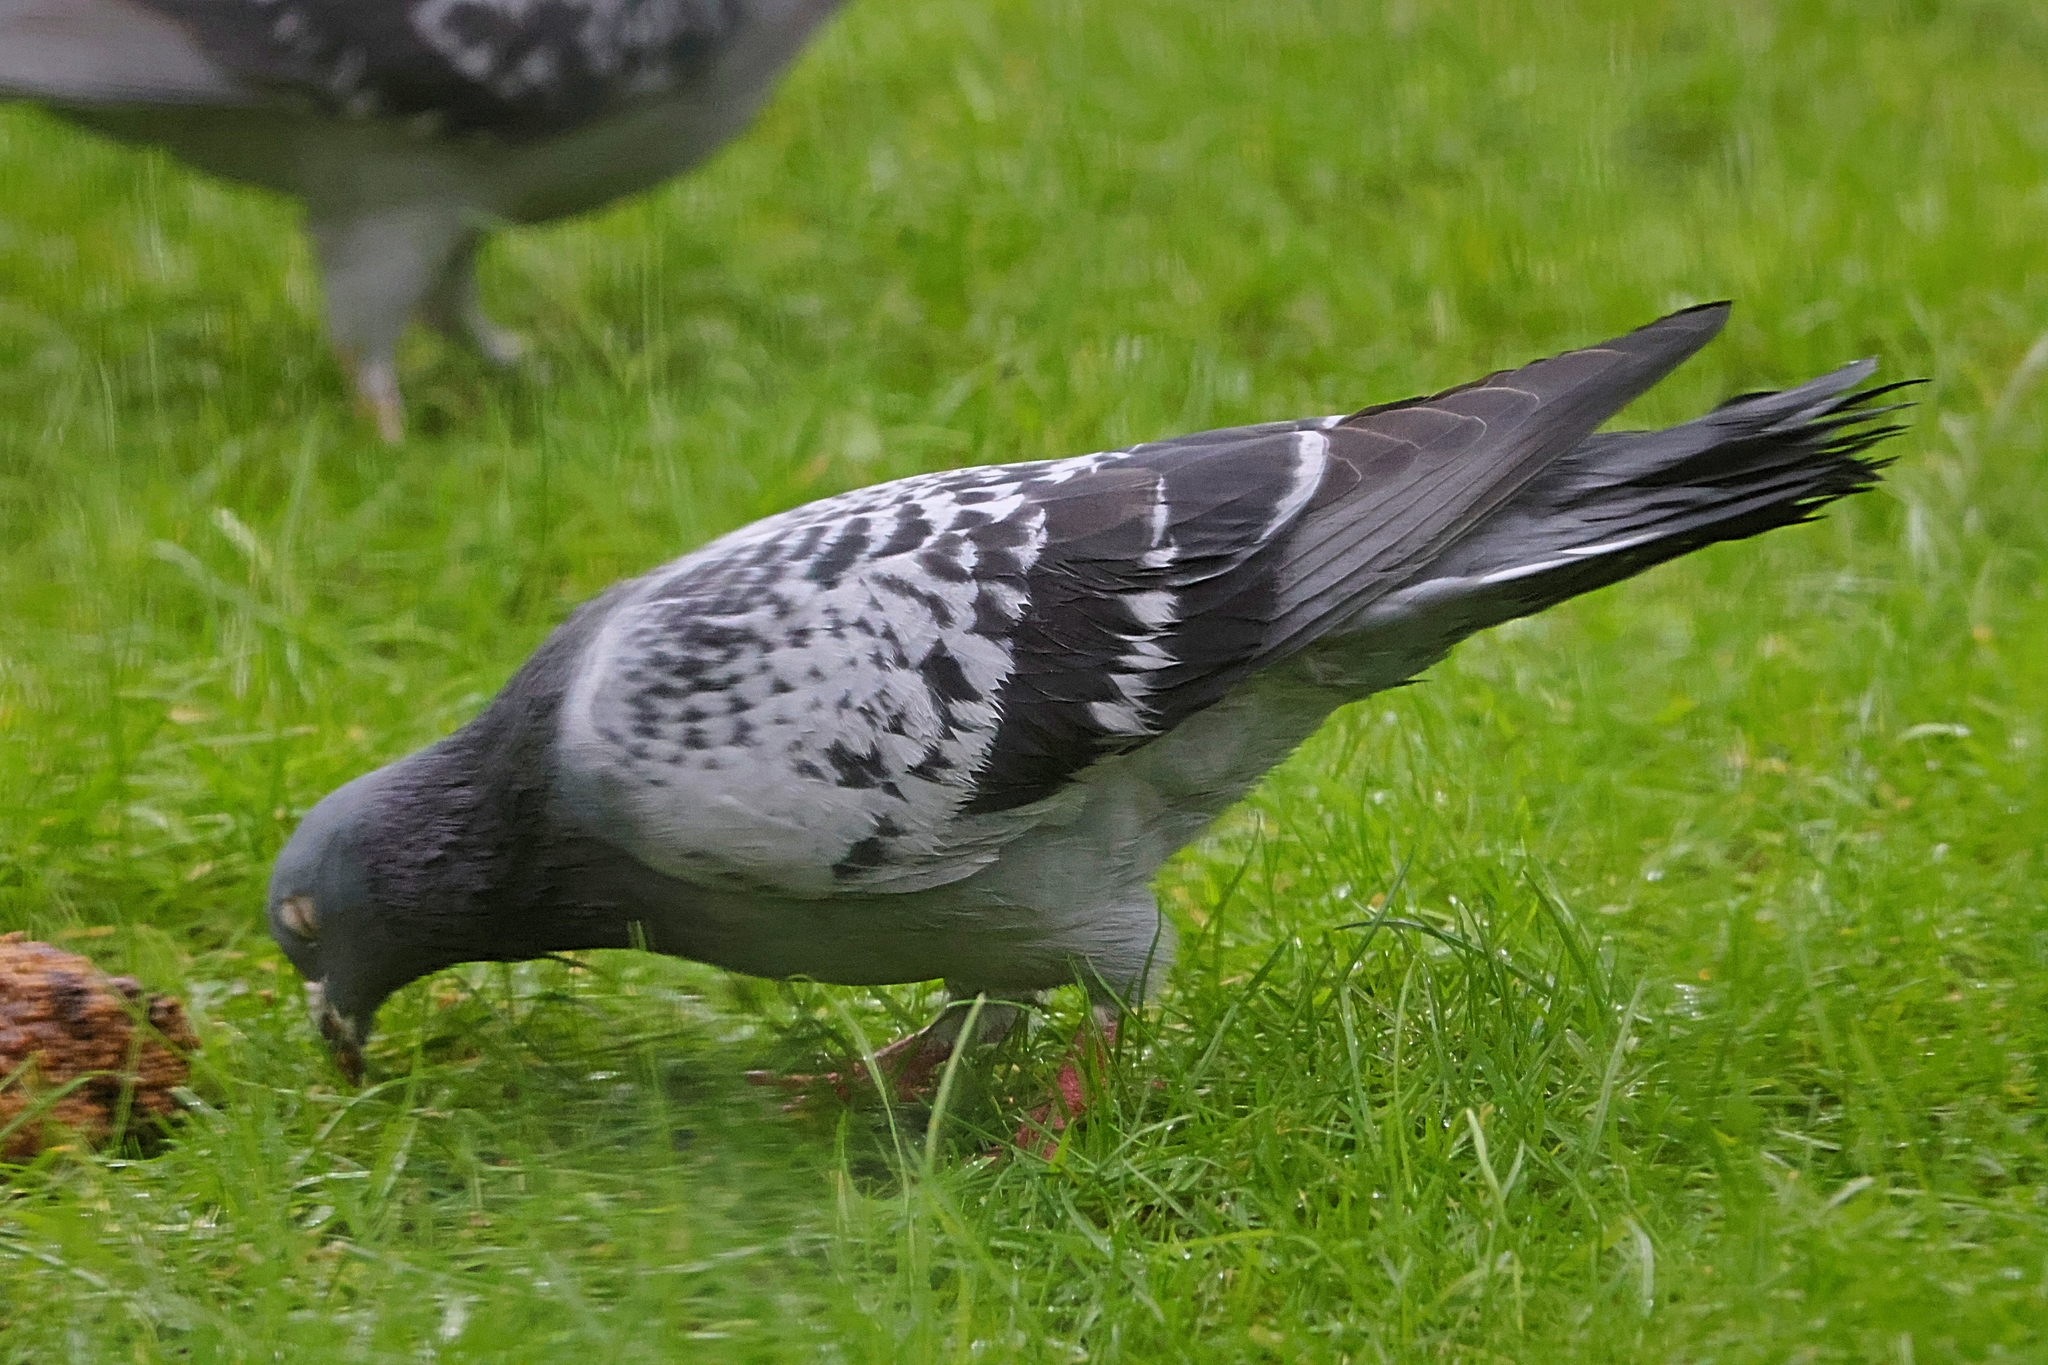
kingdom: Animalia
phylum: Chordata
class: Aves
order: Columbiformes
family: Columbidae
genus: Columba
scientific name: Columba livia
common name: Rock pigeon
